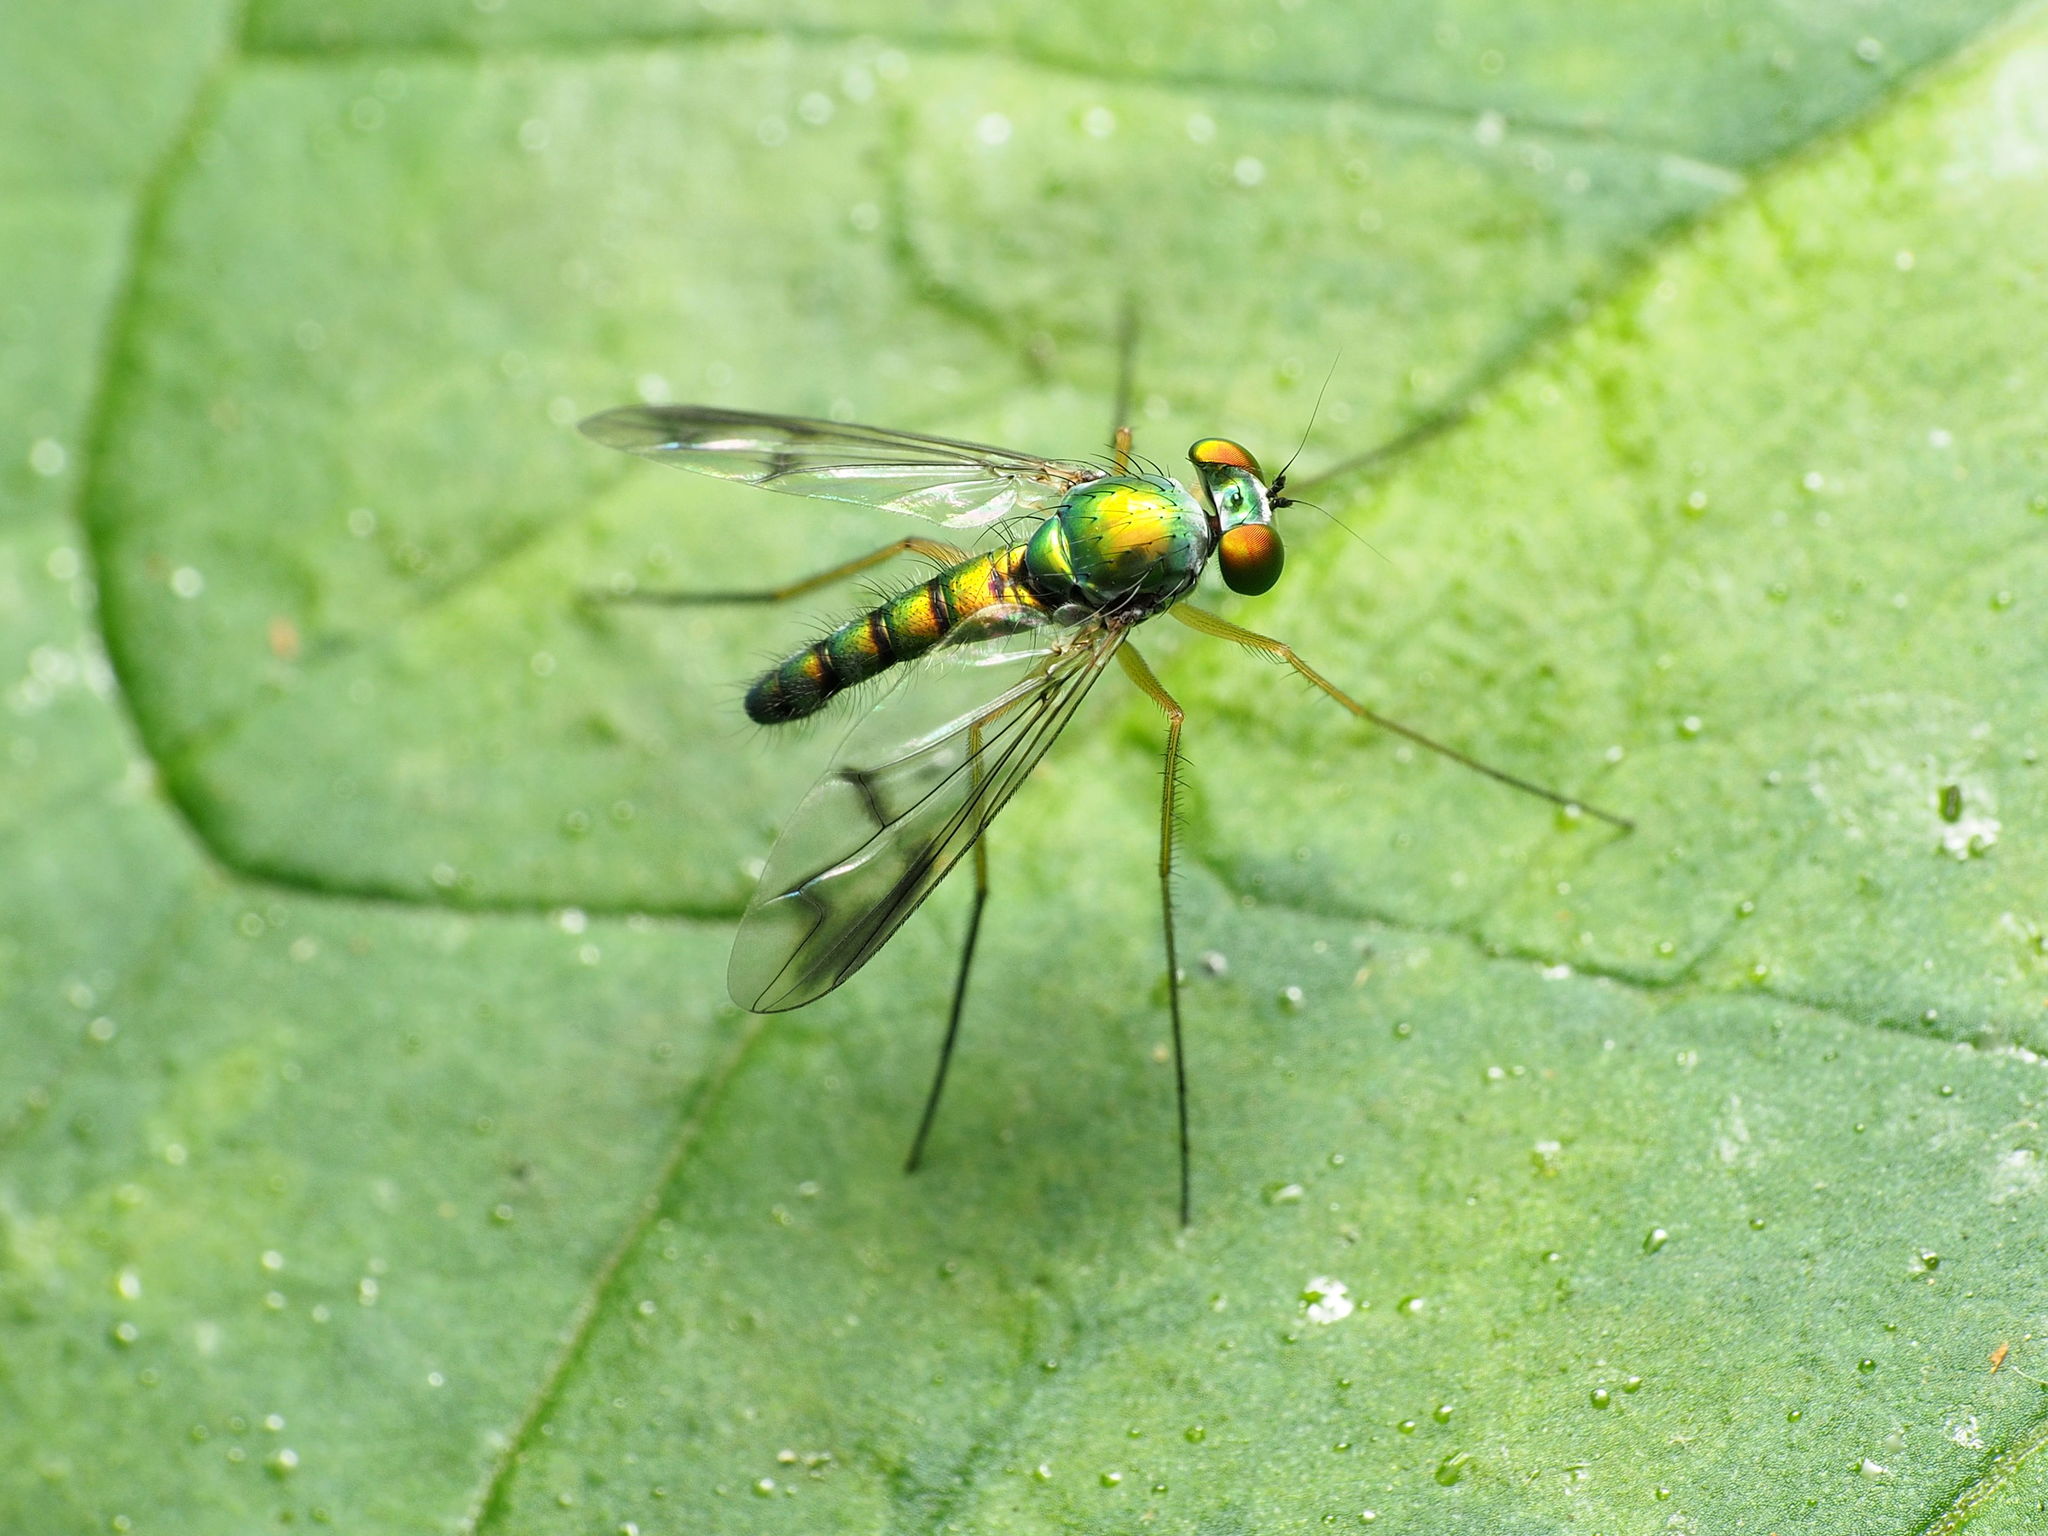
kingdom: Animalia
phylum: Arthropoda
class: Insecta
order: Diptera
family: Dolichopodidae
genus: Condylostylus
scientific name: Condylostylus
